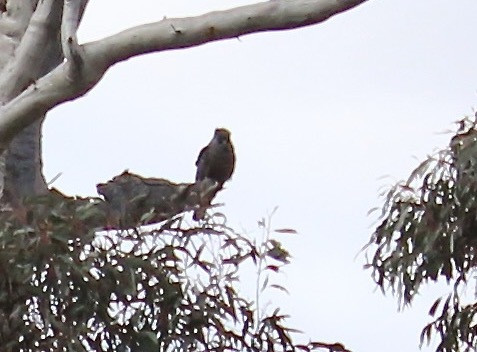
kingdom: Animalia
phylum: Chordata
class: Aves
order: Psittaciformes
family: Psittacidae
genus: Callocephalon
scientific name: Callocephalon fimbriatum
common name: Gang-gang cockatoo
